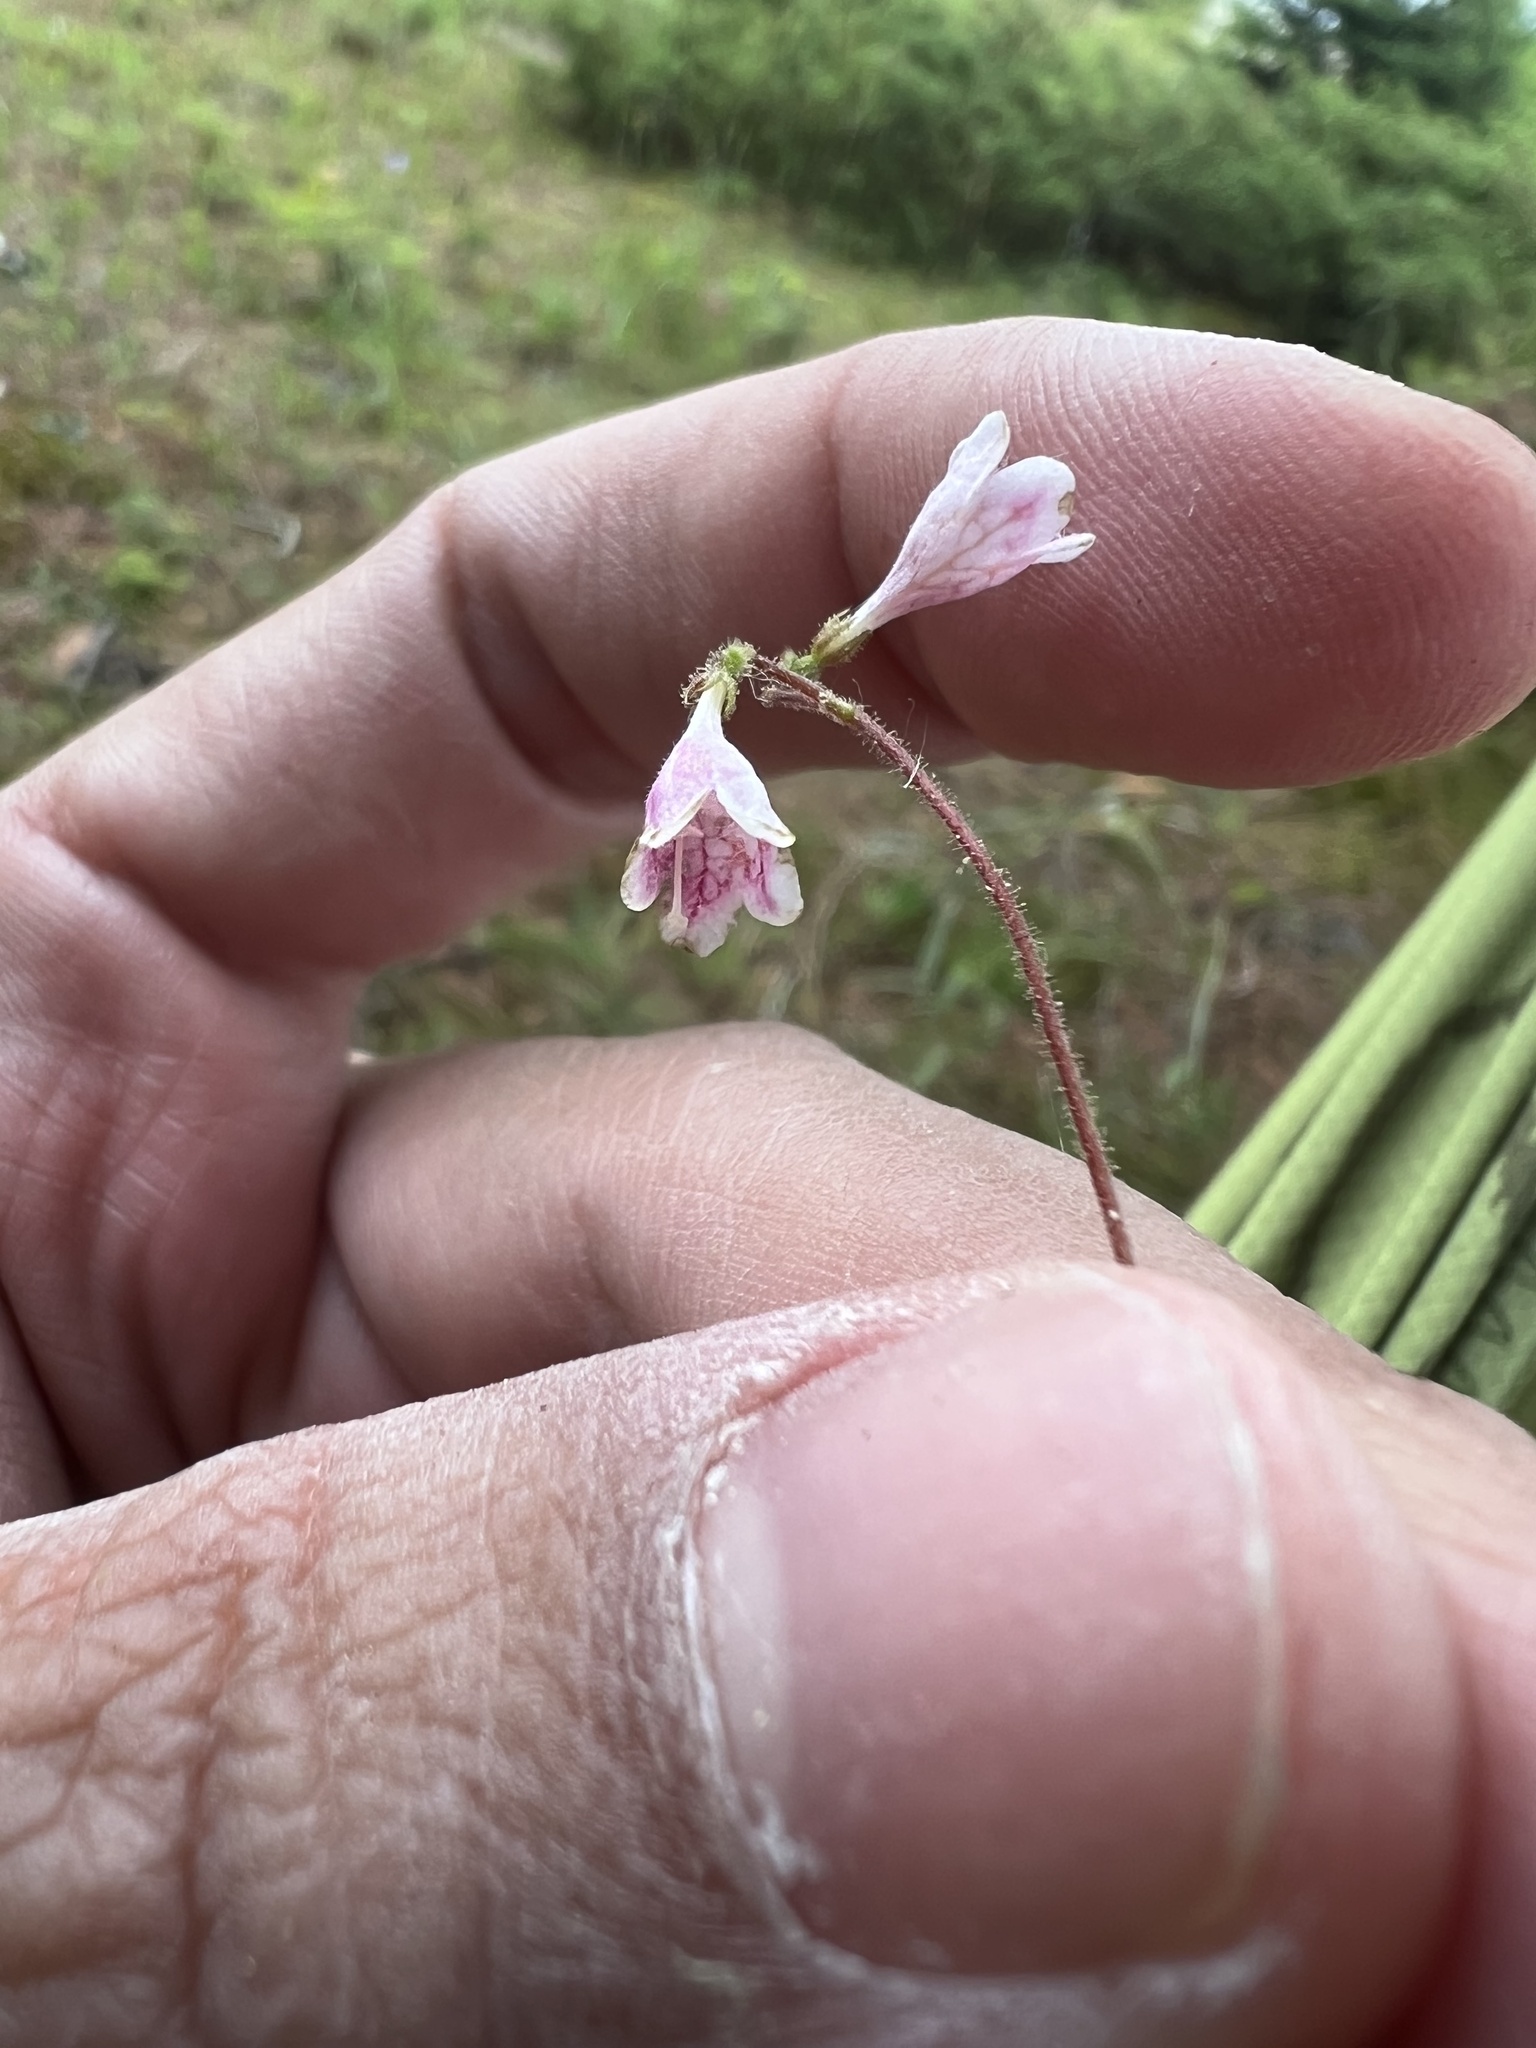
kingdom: Plantae
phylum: Tracheophyta
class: Magnoliopsida
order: Dipsacales
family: Caprifoliaceae
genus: Linnaea
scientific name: Linnaea borealis
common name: Twinflower
